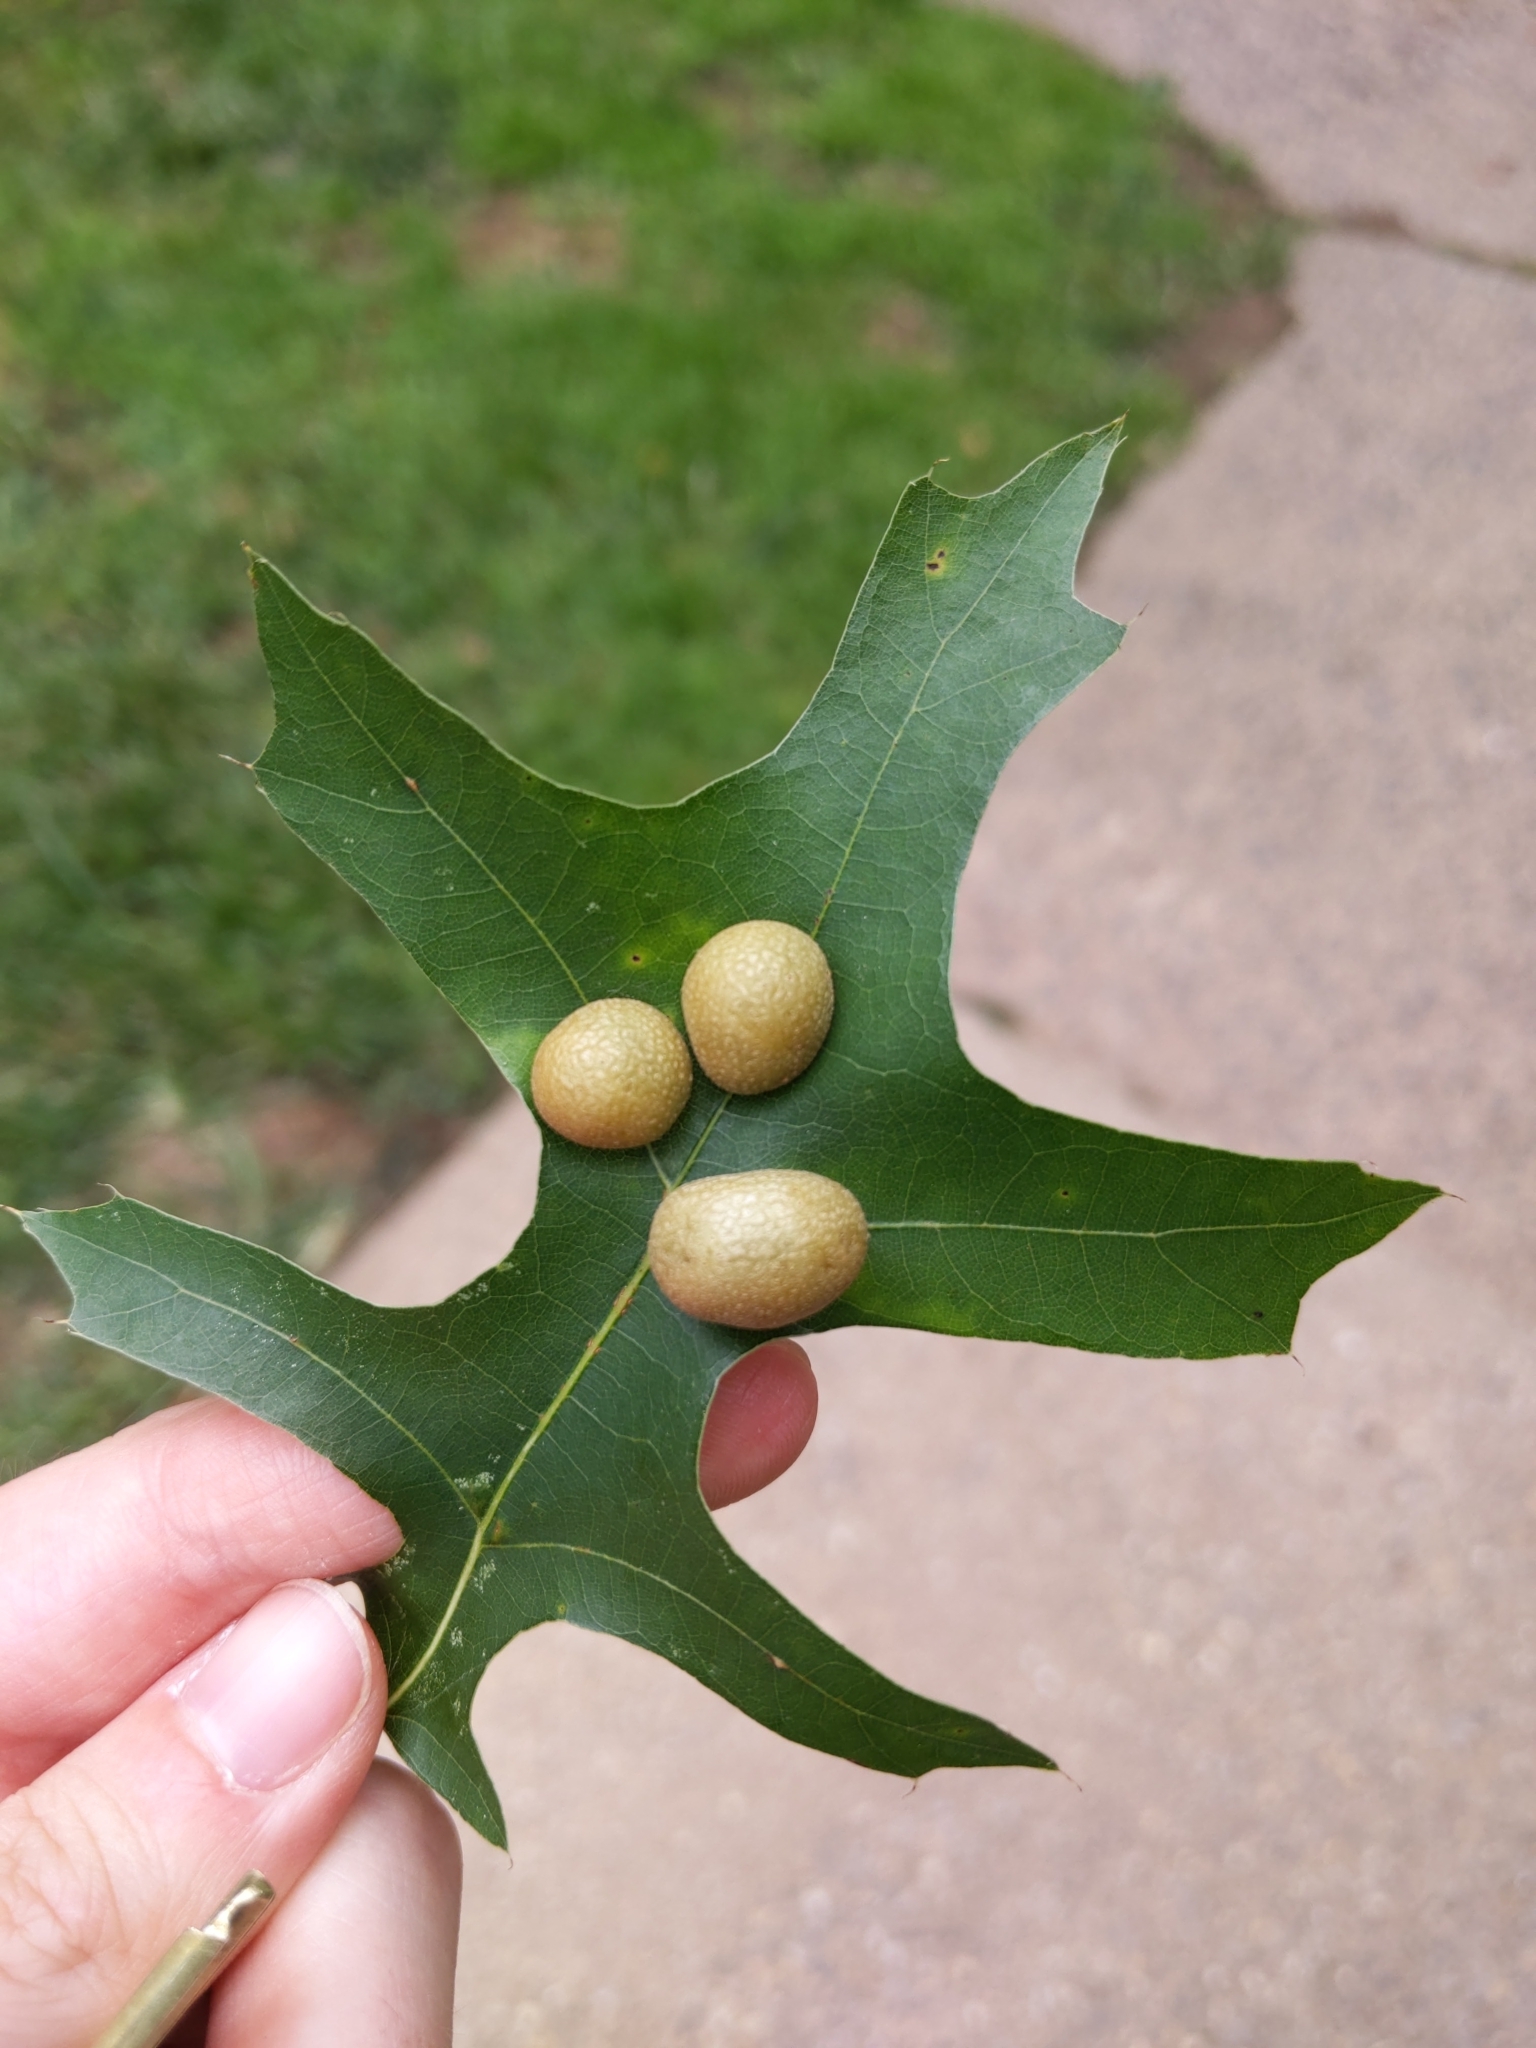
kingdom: Animalia
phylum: Arthropoda
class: Insecta
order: Diptera
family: Cecidomyiidae
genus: Polystepha
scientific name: Polystepha
